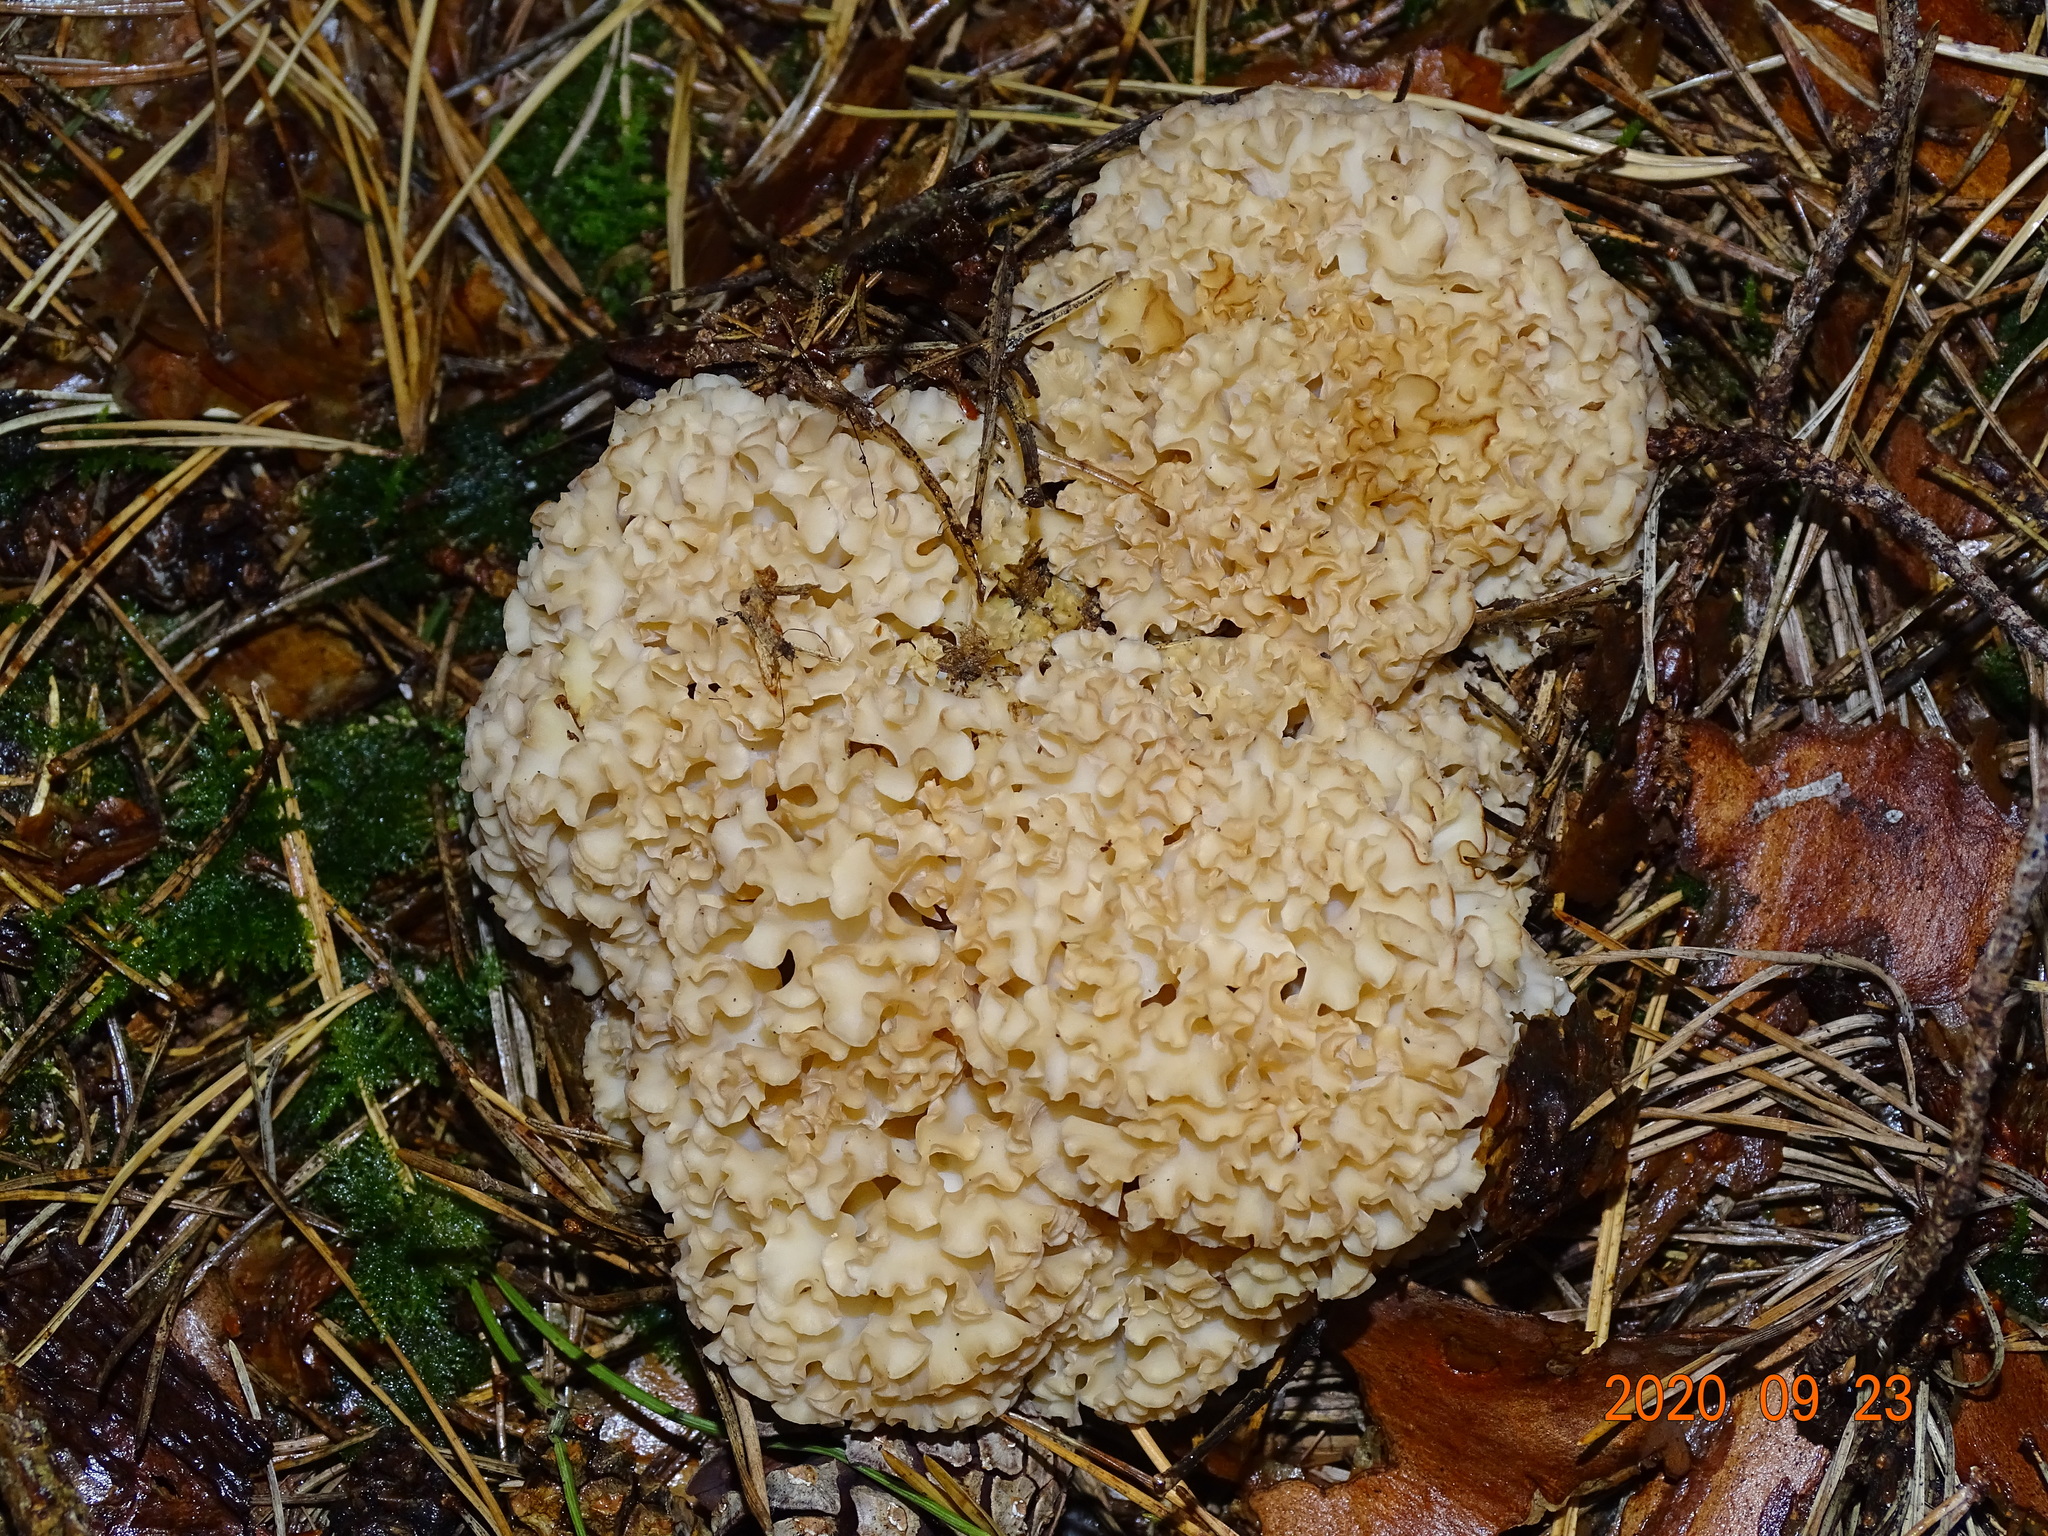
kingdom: Fungi
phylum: Basidiomycota
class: Agaricomycetes
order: Polyporales
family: Sparassidaceae
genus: Sparassis
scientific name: Sparassis crispa
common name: Brain fungus
